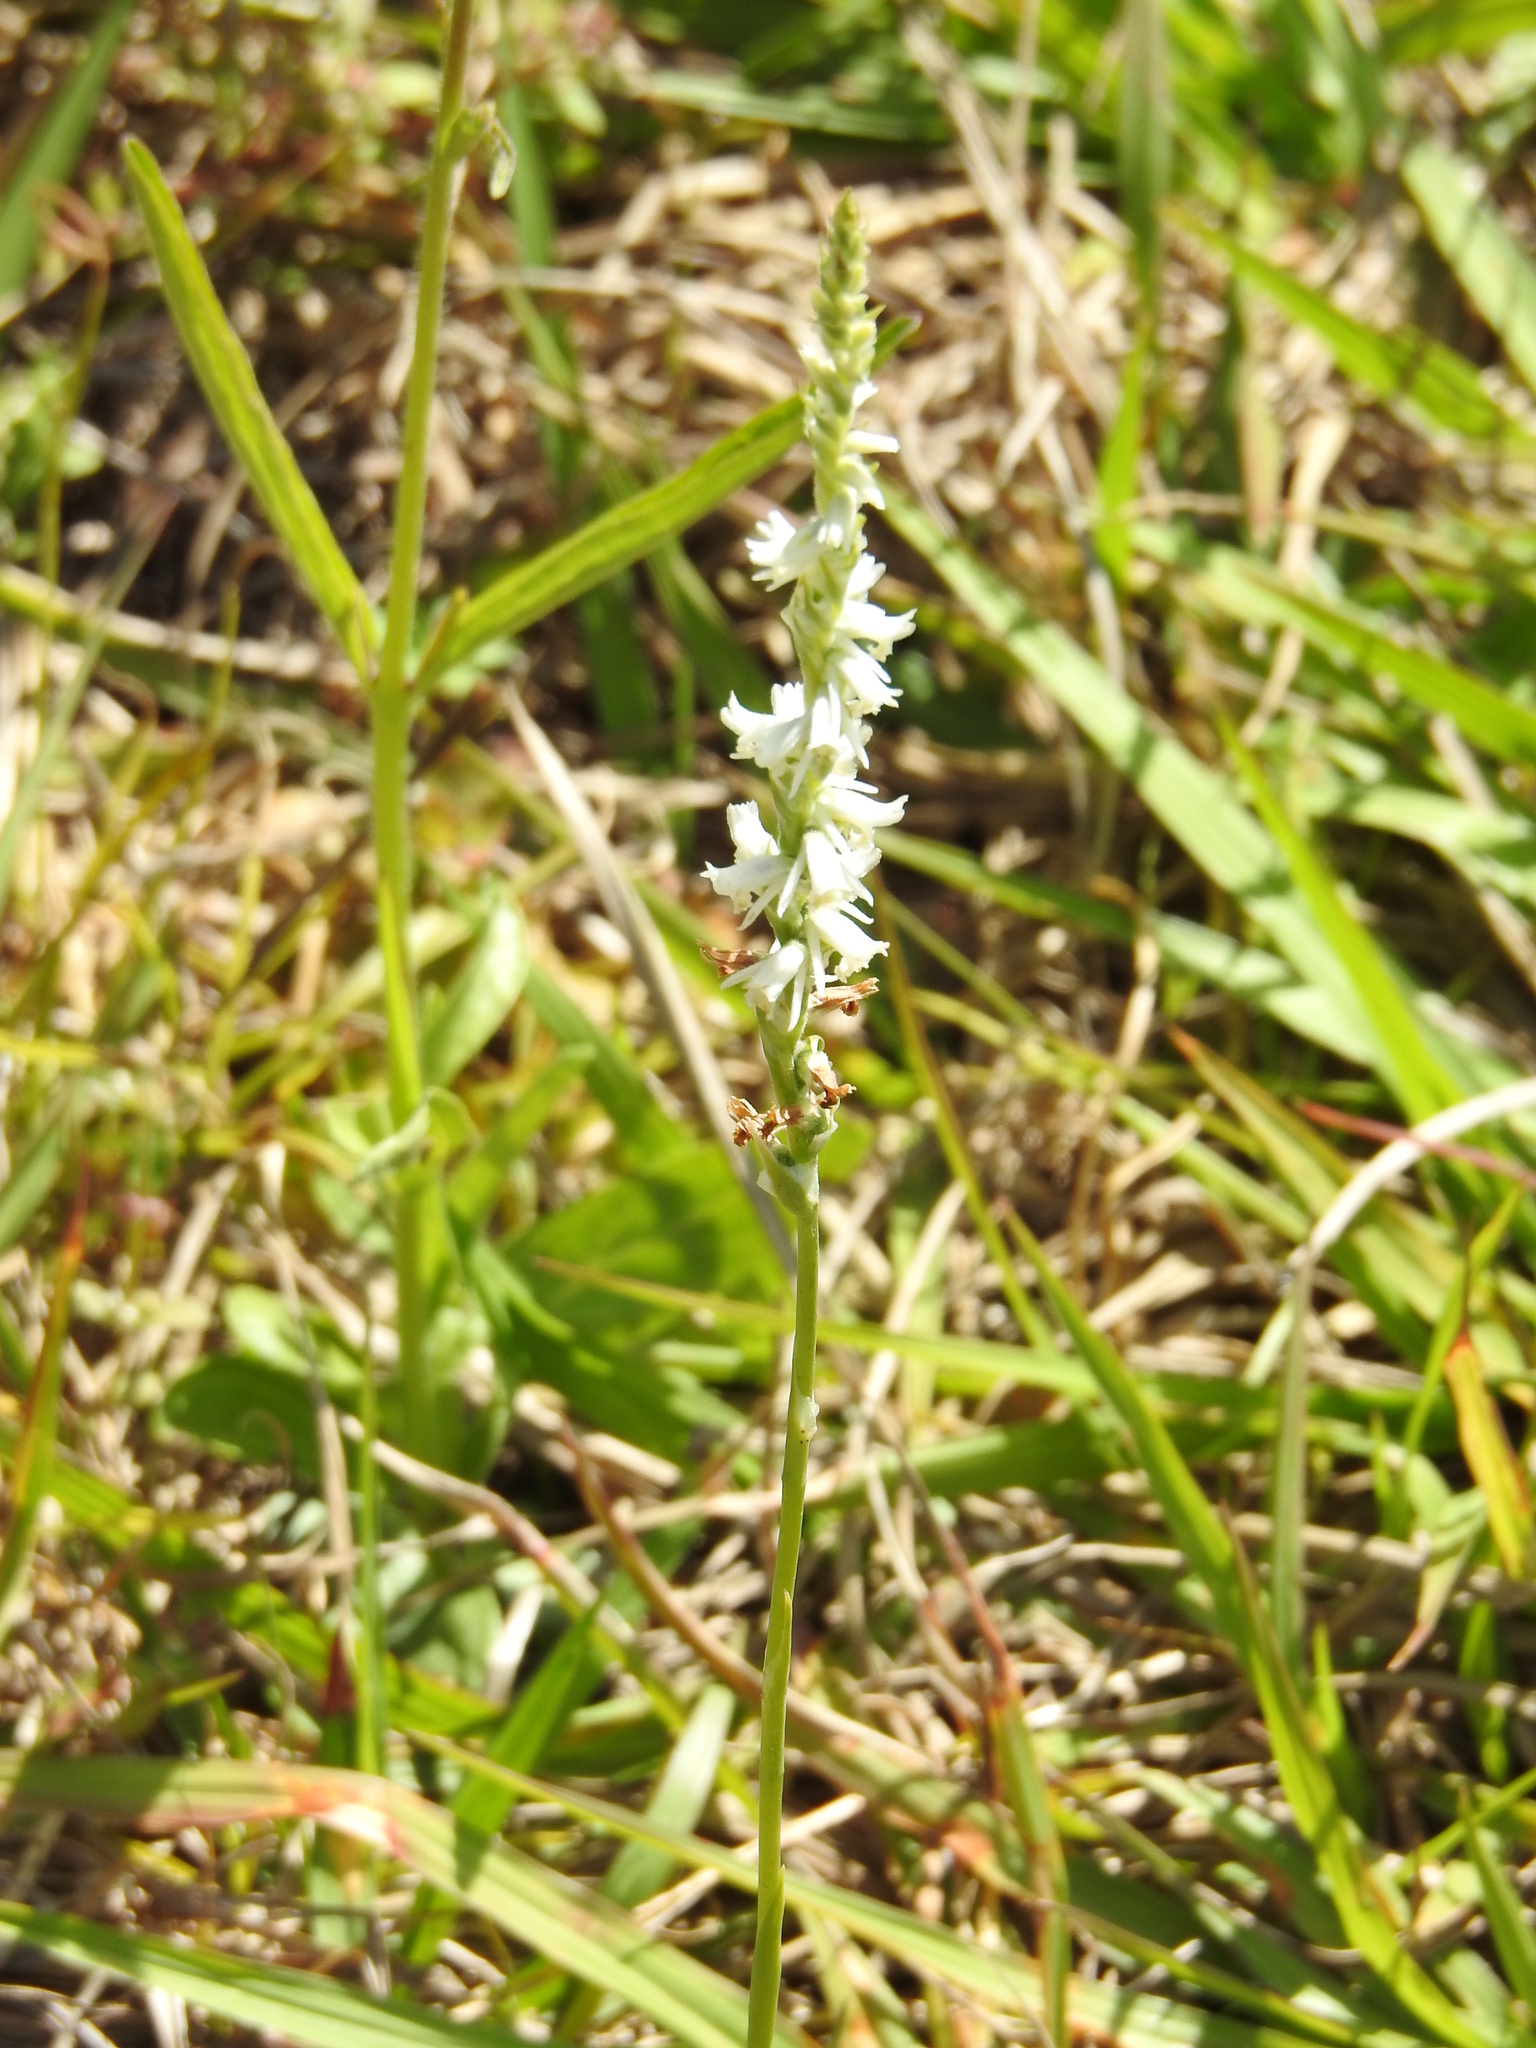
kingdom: Plantae
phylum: Tracheophyta
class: Liliopsida
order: Asparagales
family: Orchidaceae
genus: Spiranthes
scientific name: Spiranthes vernalis
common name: Spring ladies'-tresses
